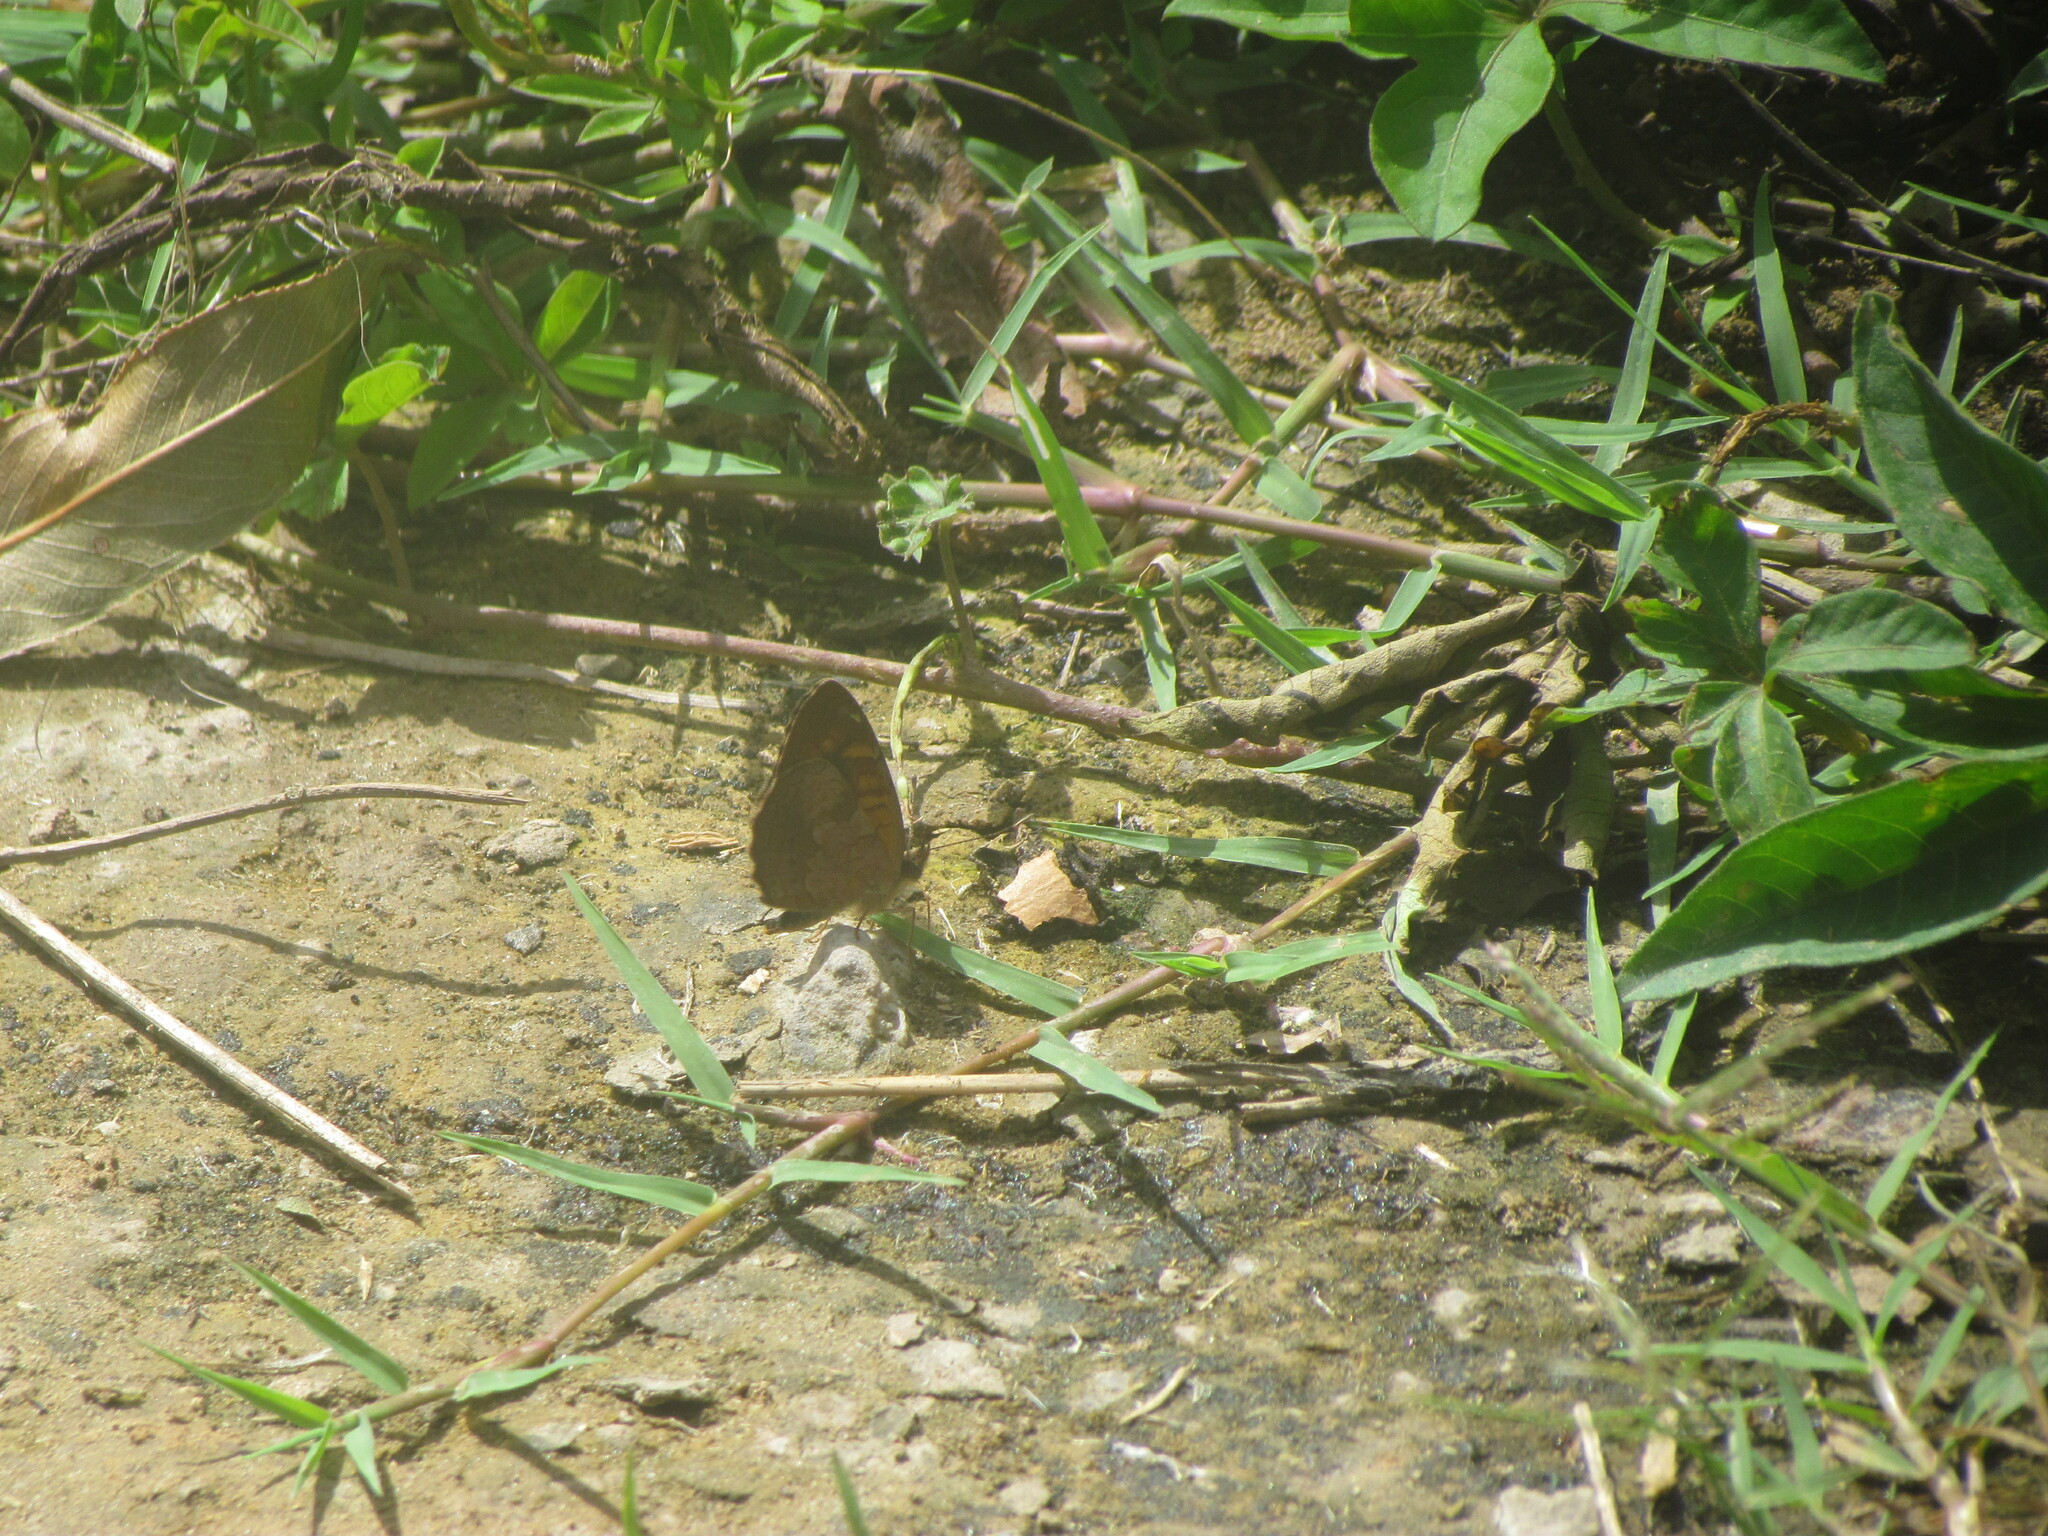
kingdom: Animalia
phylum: Arthropoda
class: Insecta
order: Lepidoptera
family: Nymphalidae
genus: Ortilia
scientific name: Ortilia velica
